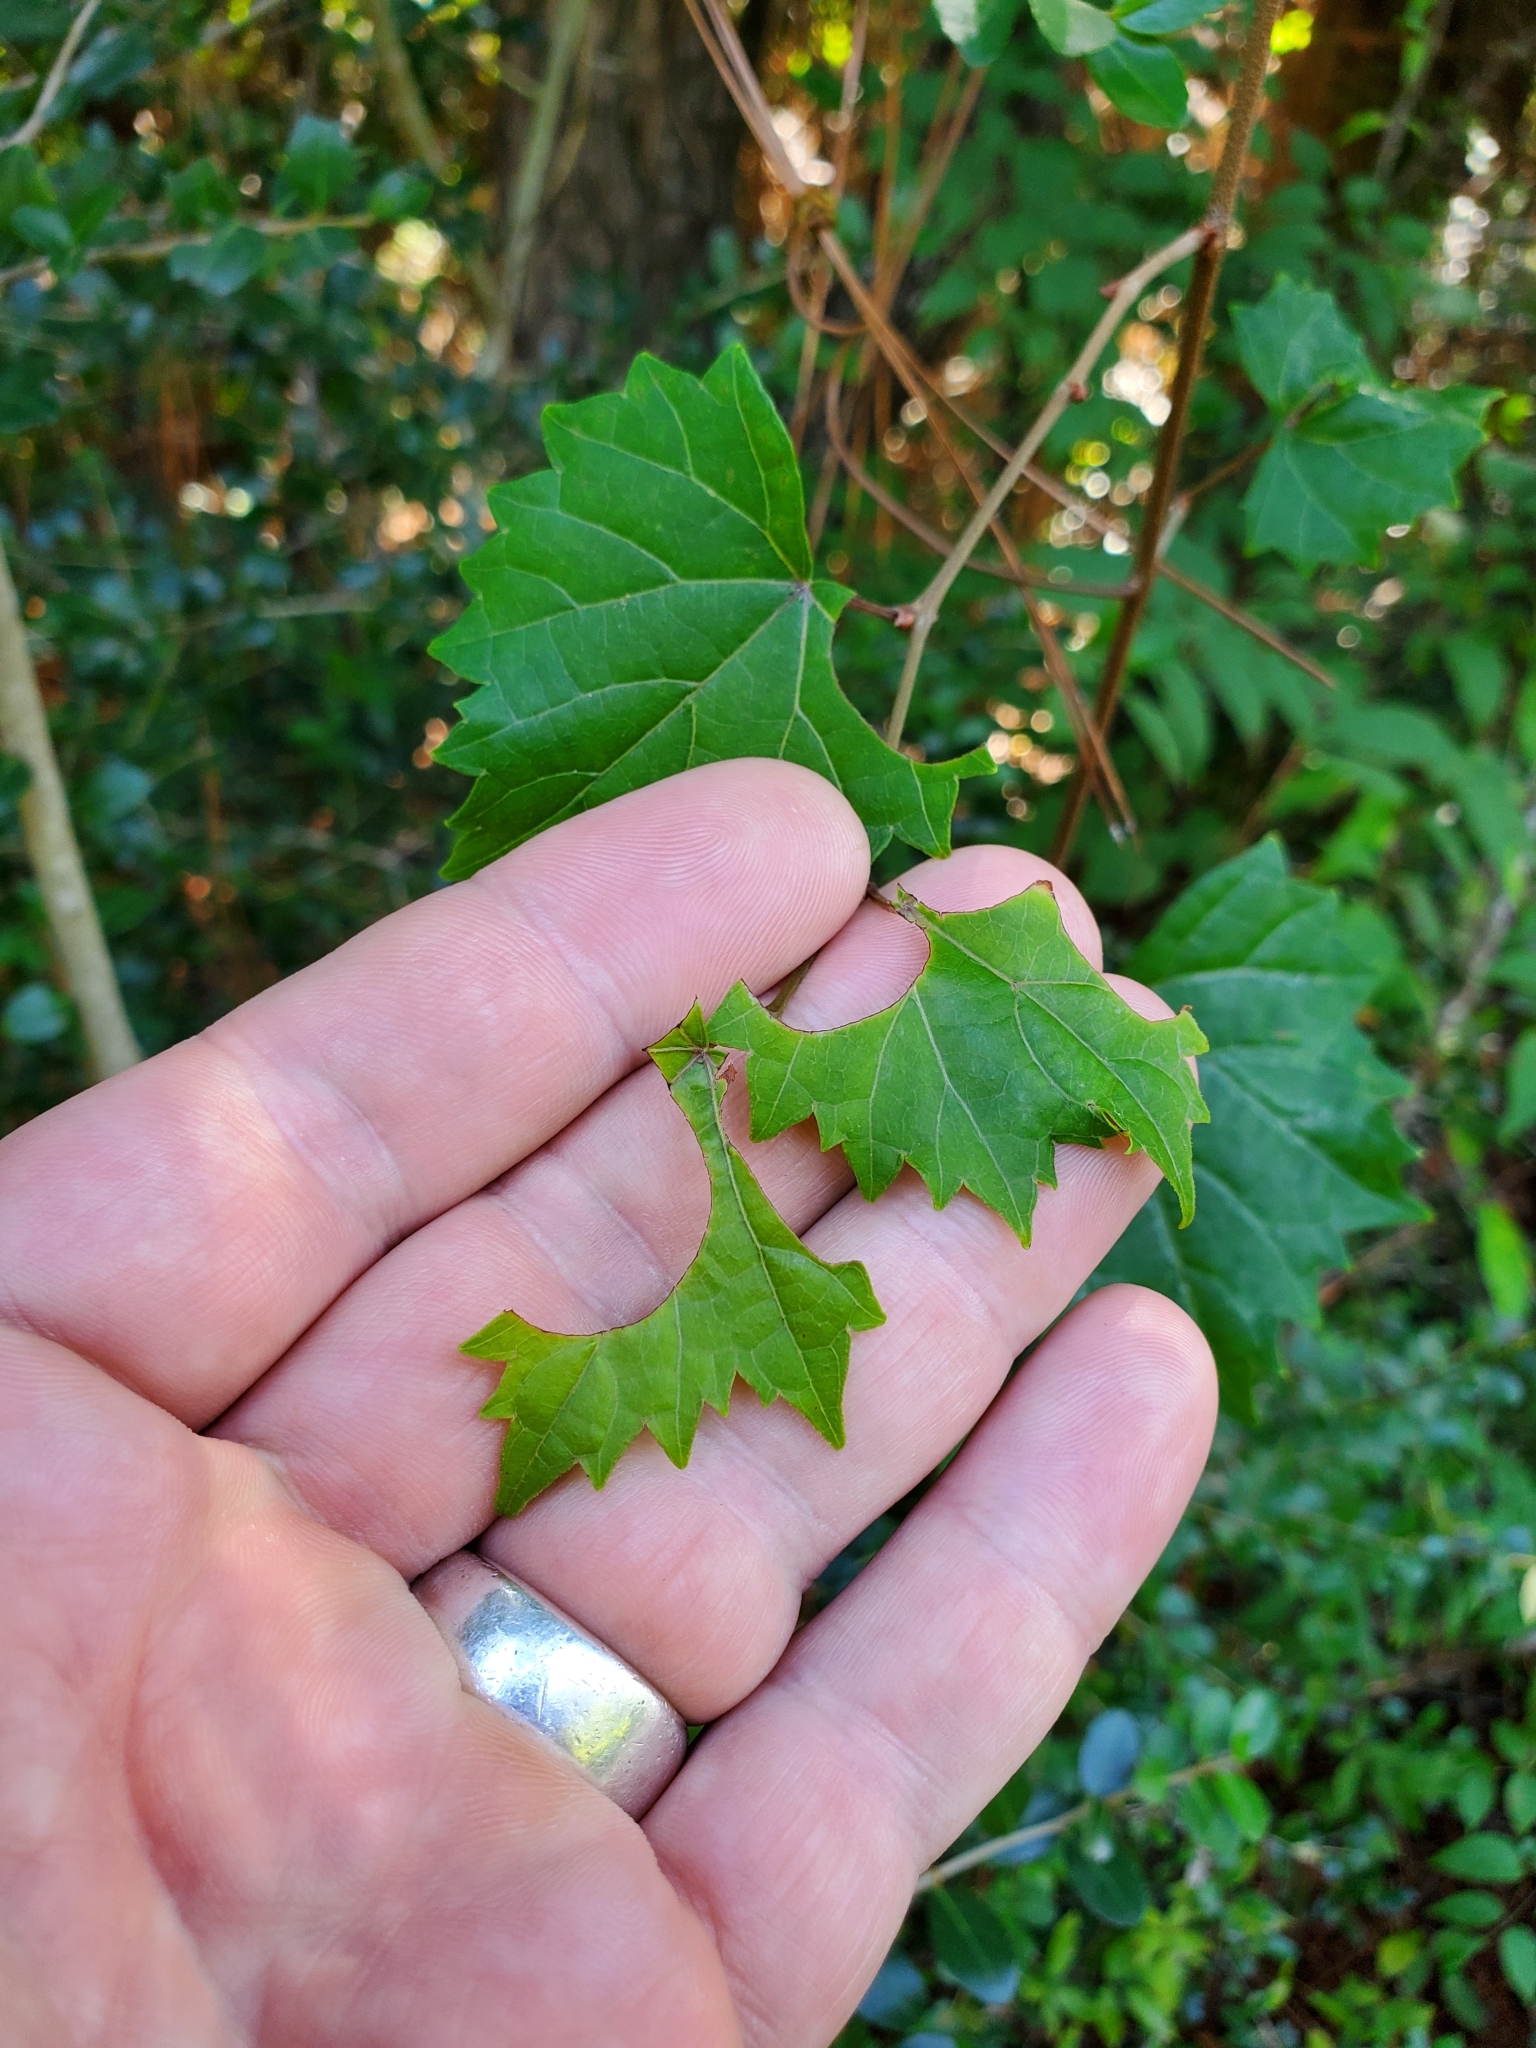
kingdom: Plantae
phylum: Tracheophyta
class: Magnoliopsida
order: Vitales
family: Vitaceae
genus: Vitis
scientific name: Vitis rotundifolia
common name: Muscadine grape
